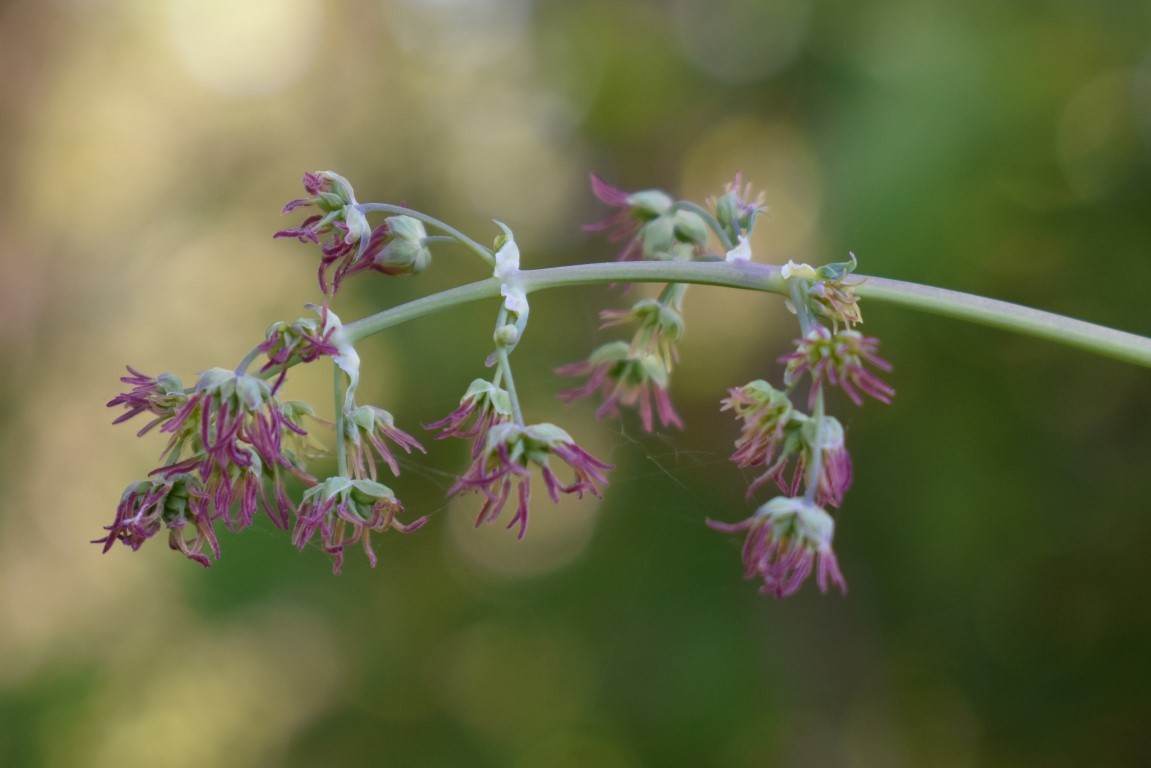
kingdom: Plantae
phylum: Tracheophyta
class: Magnoliopsida
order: Ranunculales
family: Ranunculaceae
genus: Thalictrum
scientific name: Thalictrum fendleri
